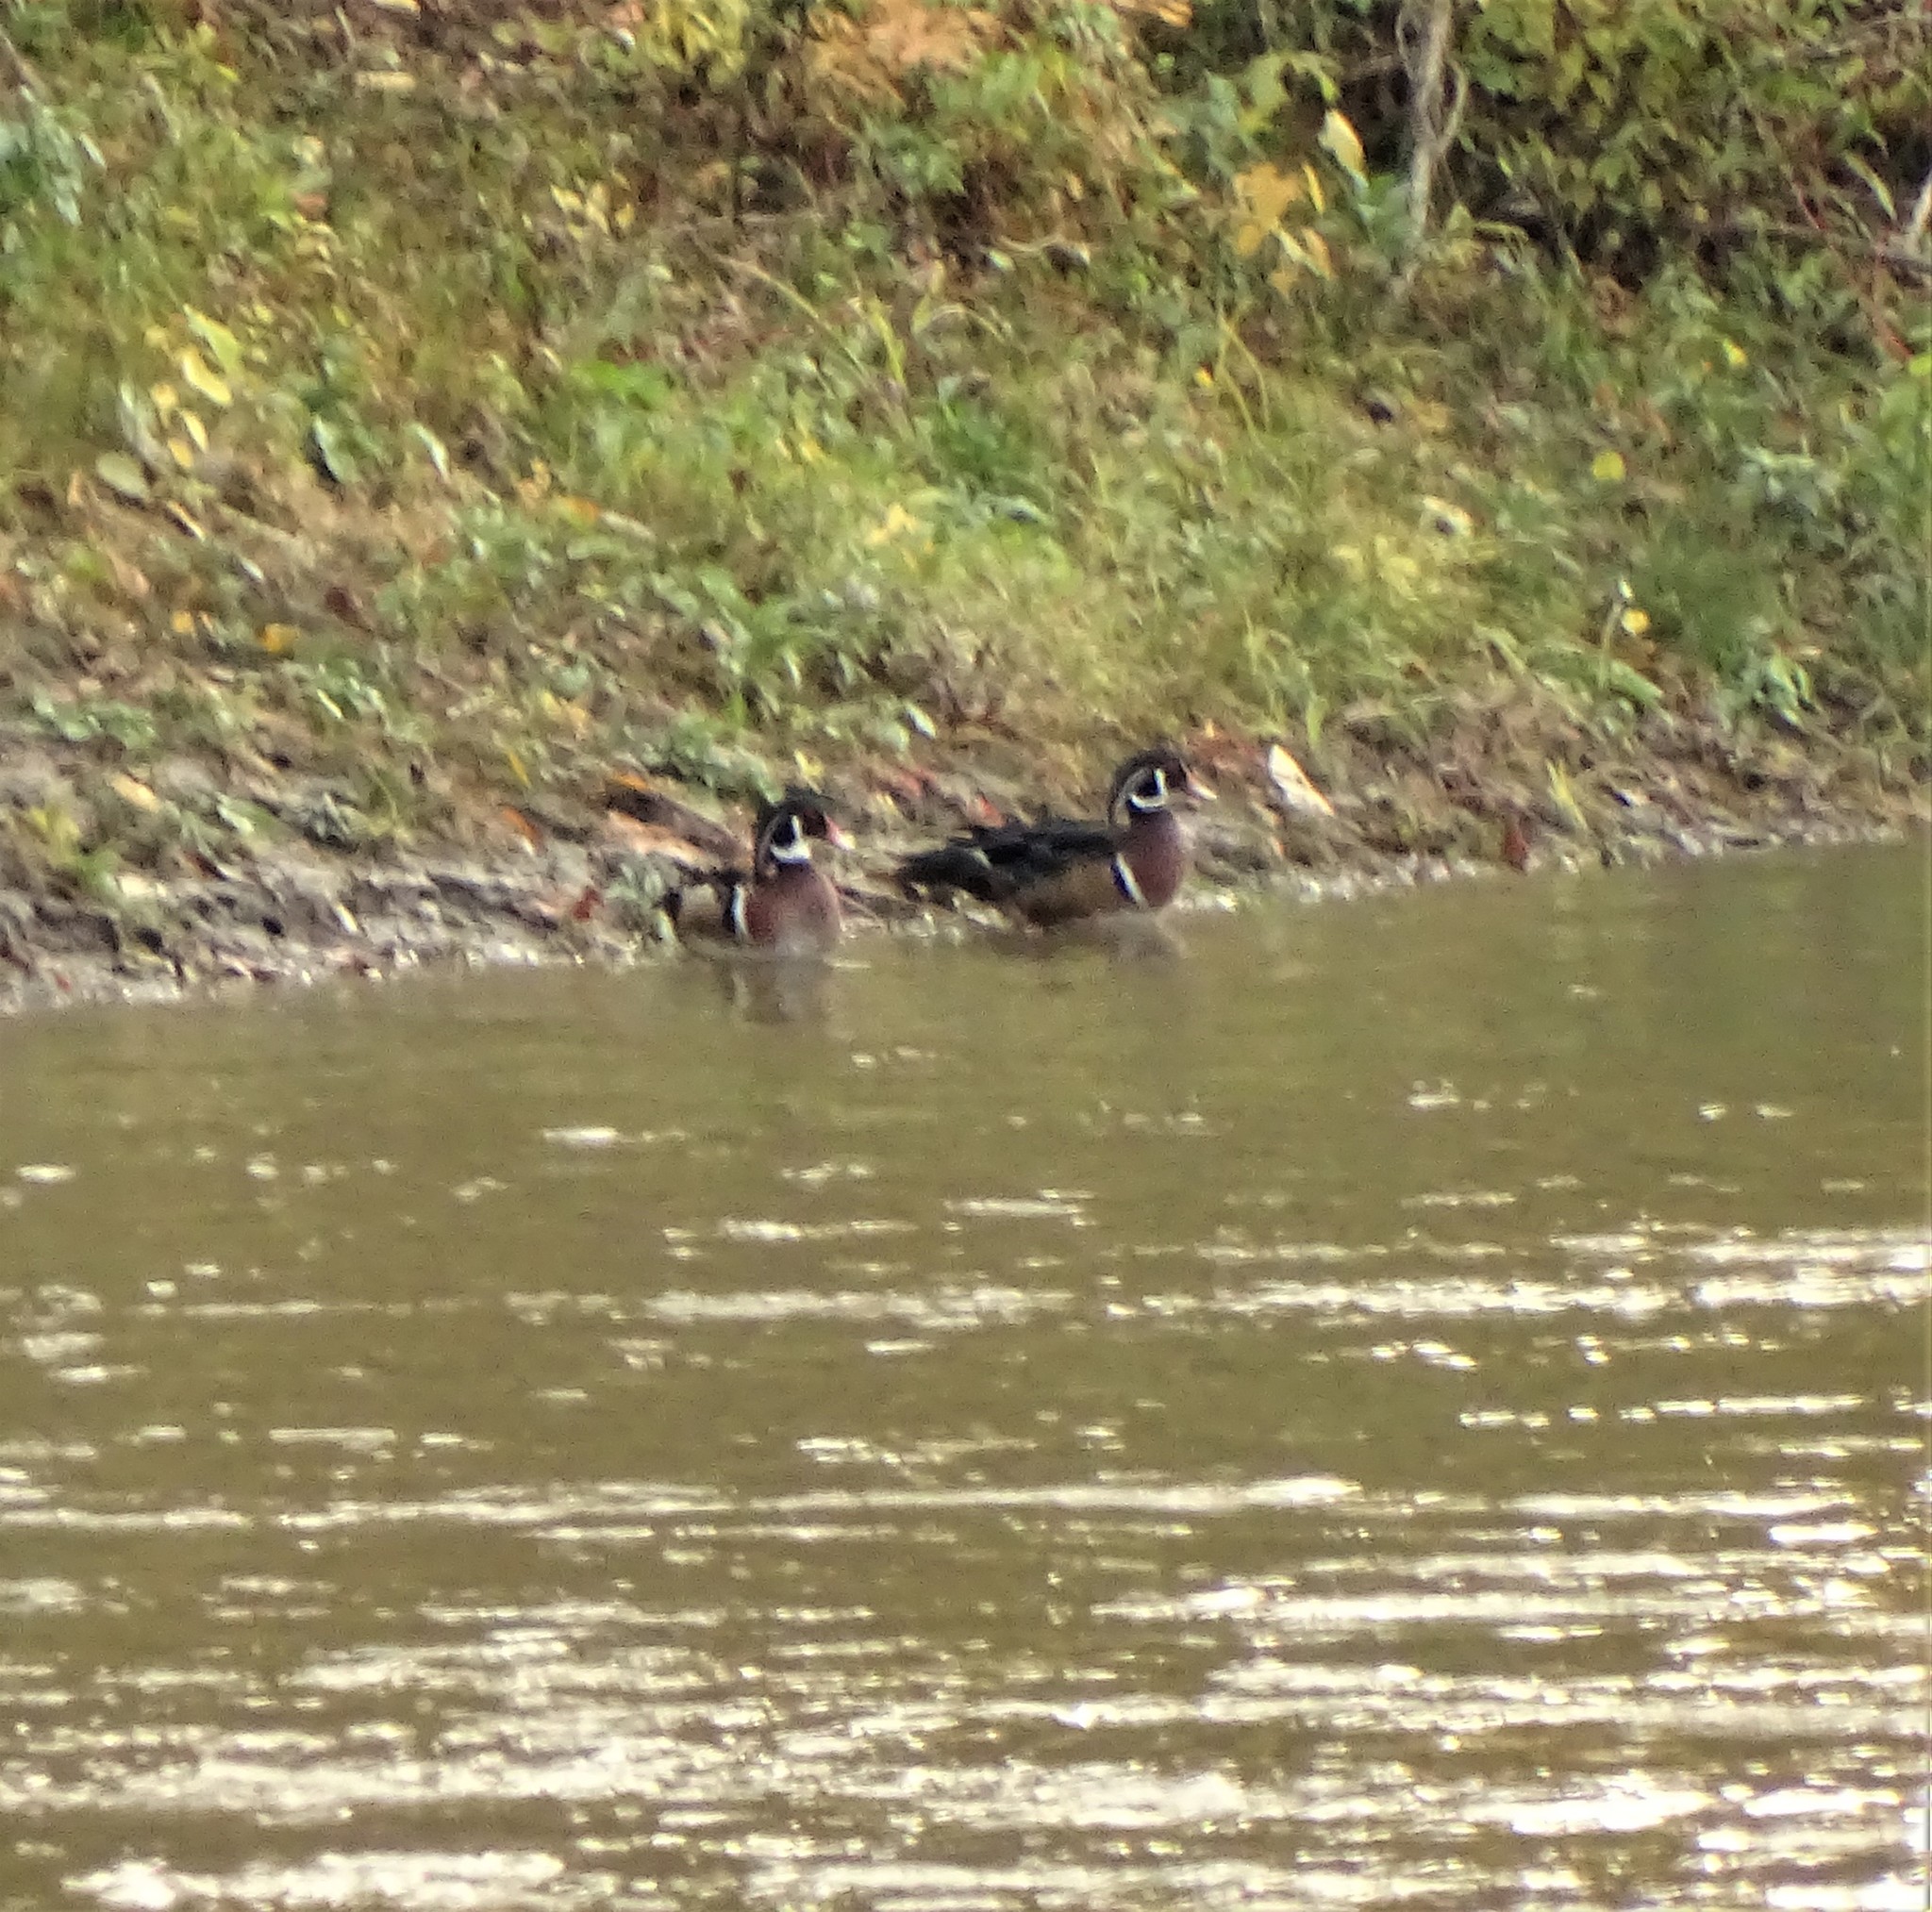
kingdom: Animalia
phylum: Chordata
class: Aves
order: Anseriformes
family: Anatidae
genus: Aix
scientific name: Aix sponsa
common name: Wood duck
